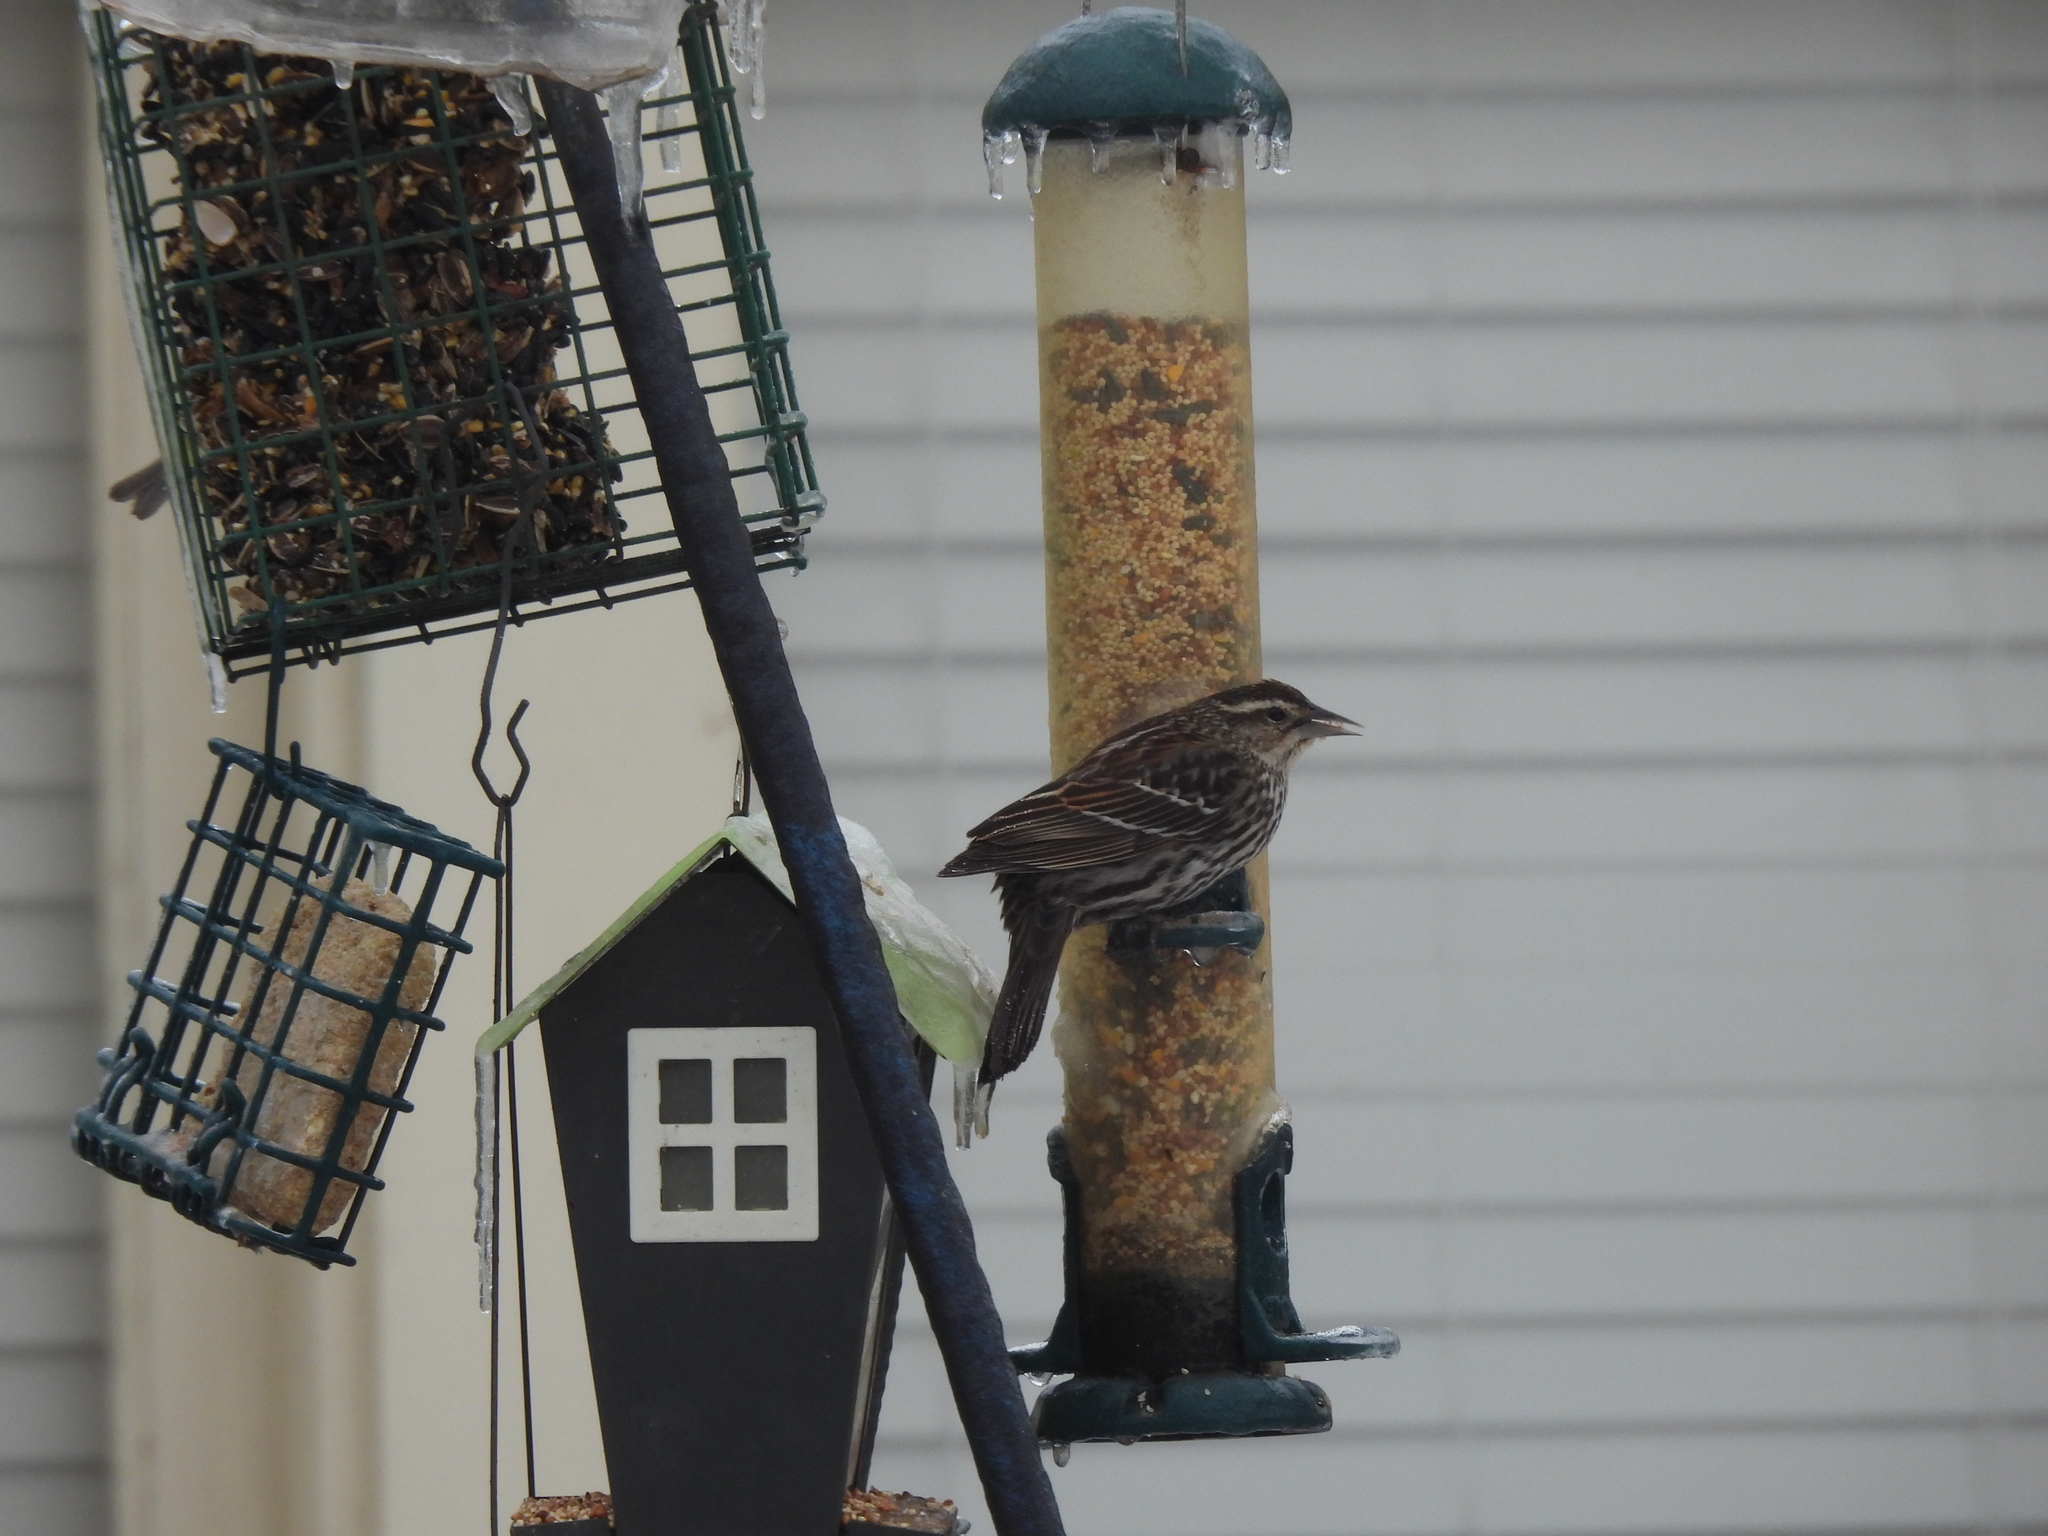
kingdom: Animalia
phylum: Chordata
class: Aves
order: Passeriformes
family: Icteridae
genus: Agelaius
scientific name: Agelaius phoeniceus
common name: Red-winged blackbird
